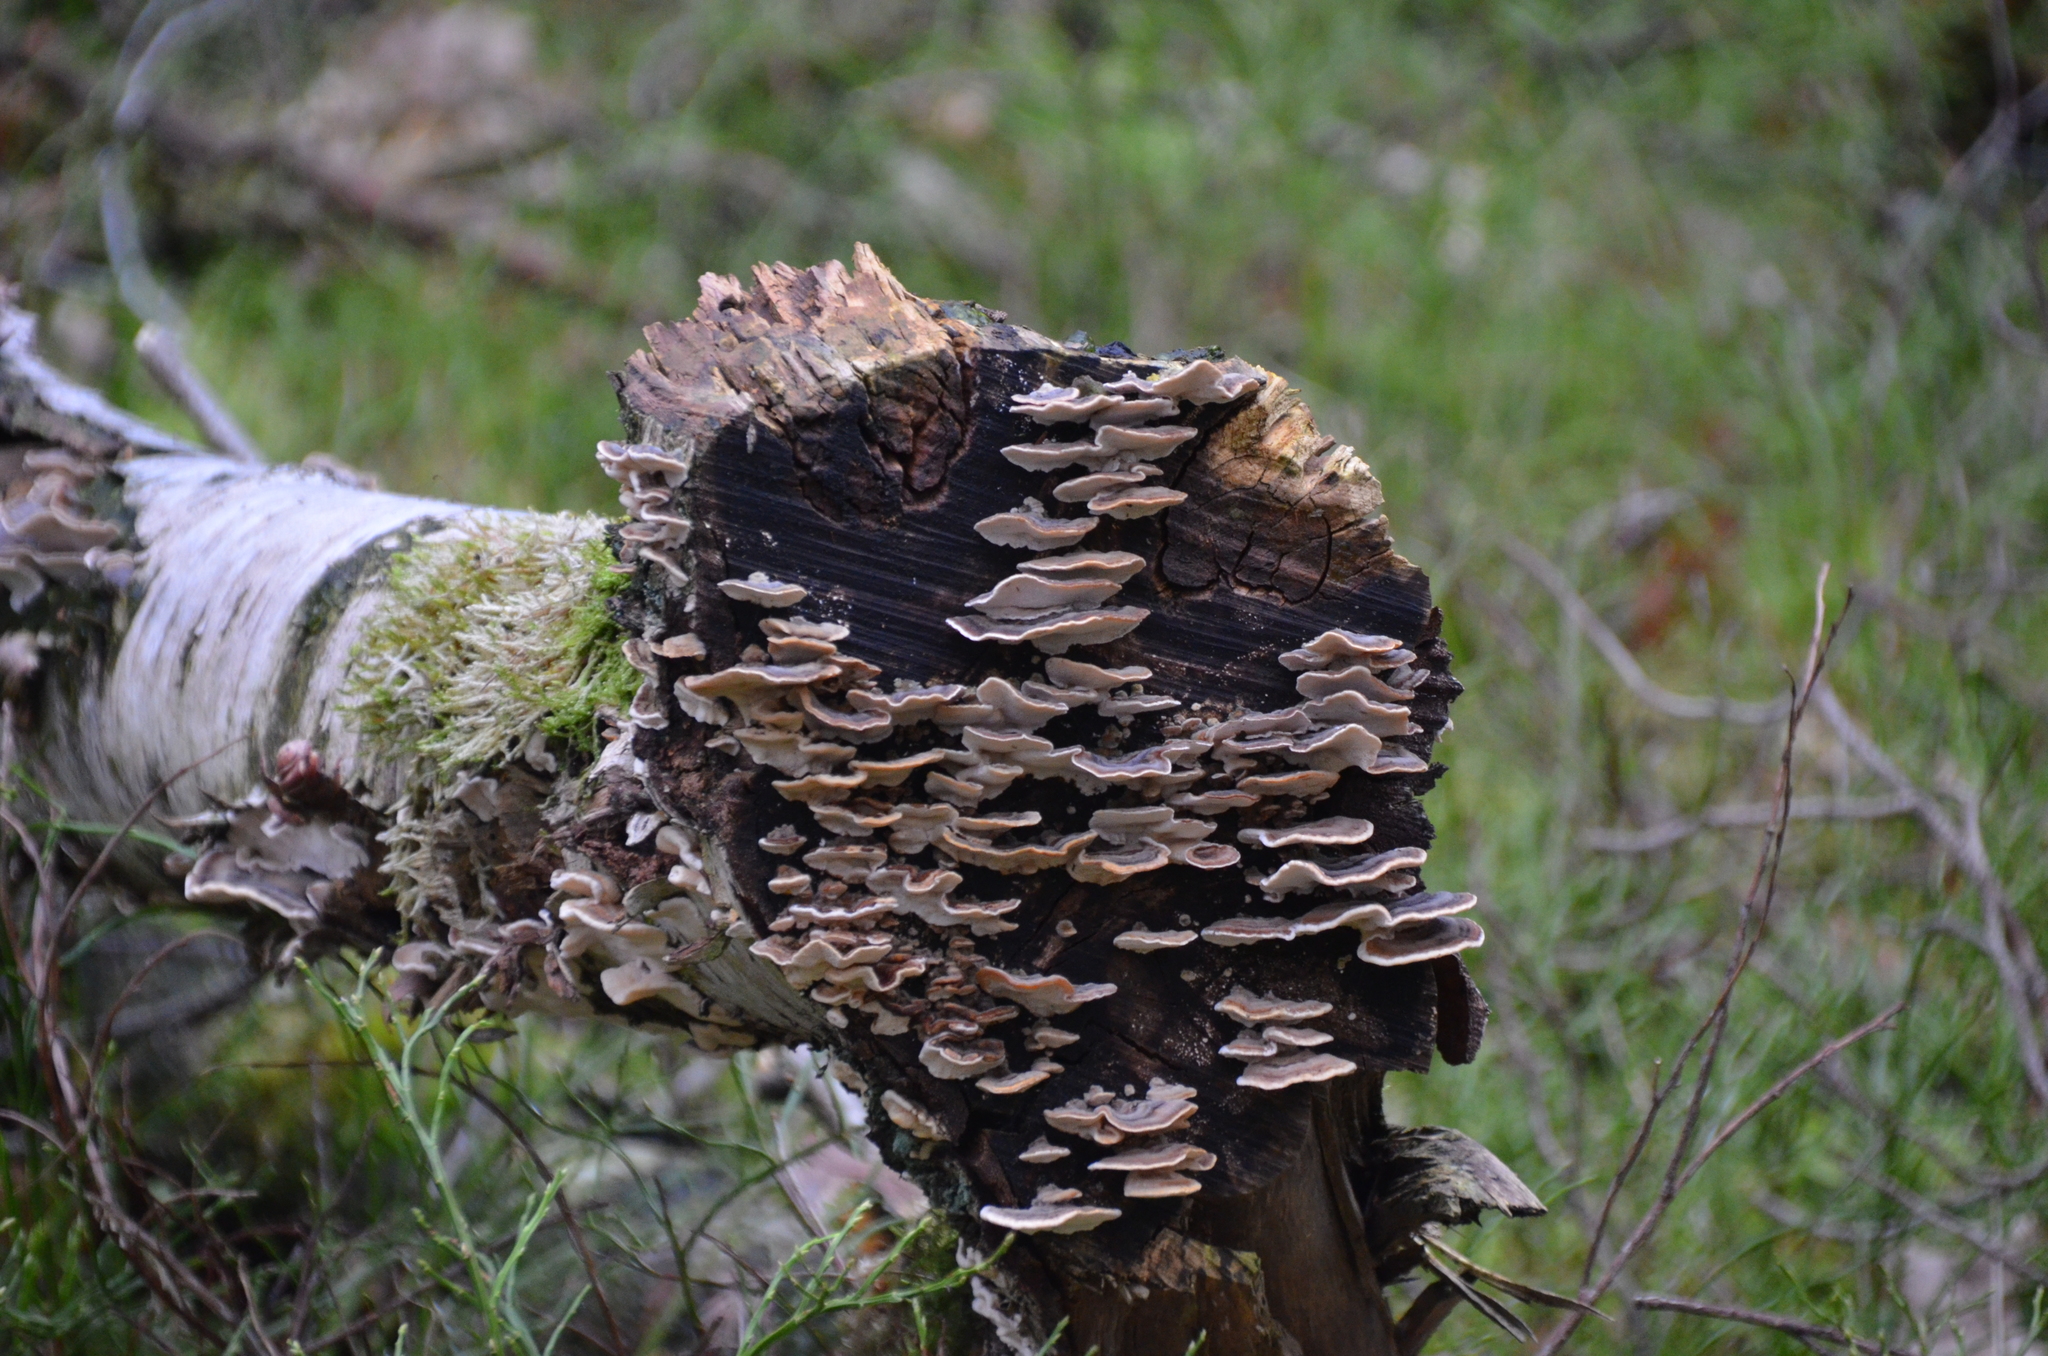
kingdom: Fungi
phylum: Basidiomycota
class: Agaricomycetes
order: Polyporales
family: Polyporaceae
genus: Trametes
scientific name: Trametes versicolor
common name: Turkeytail
